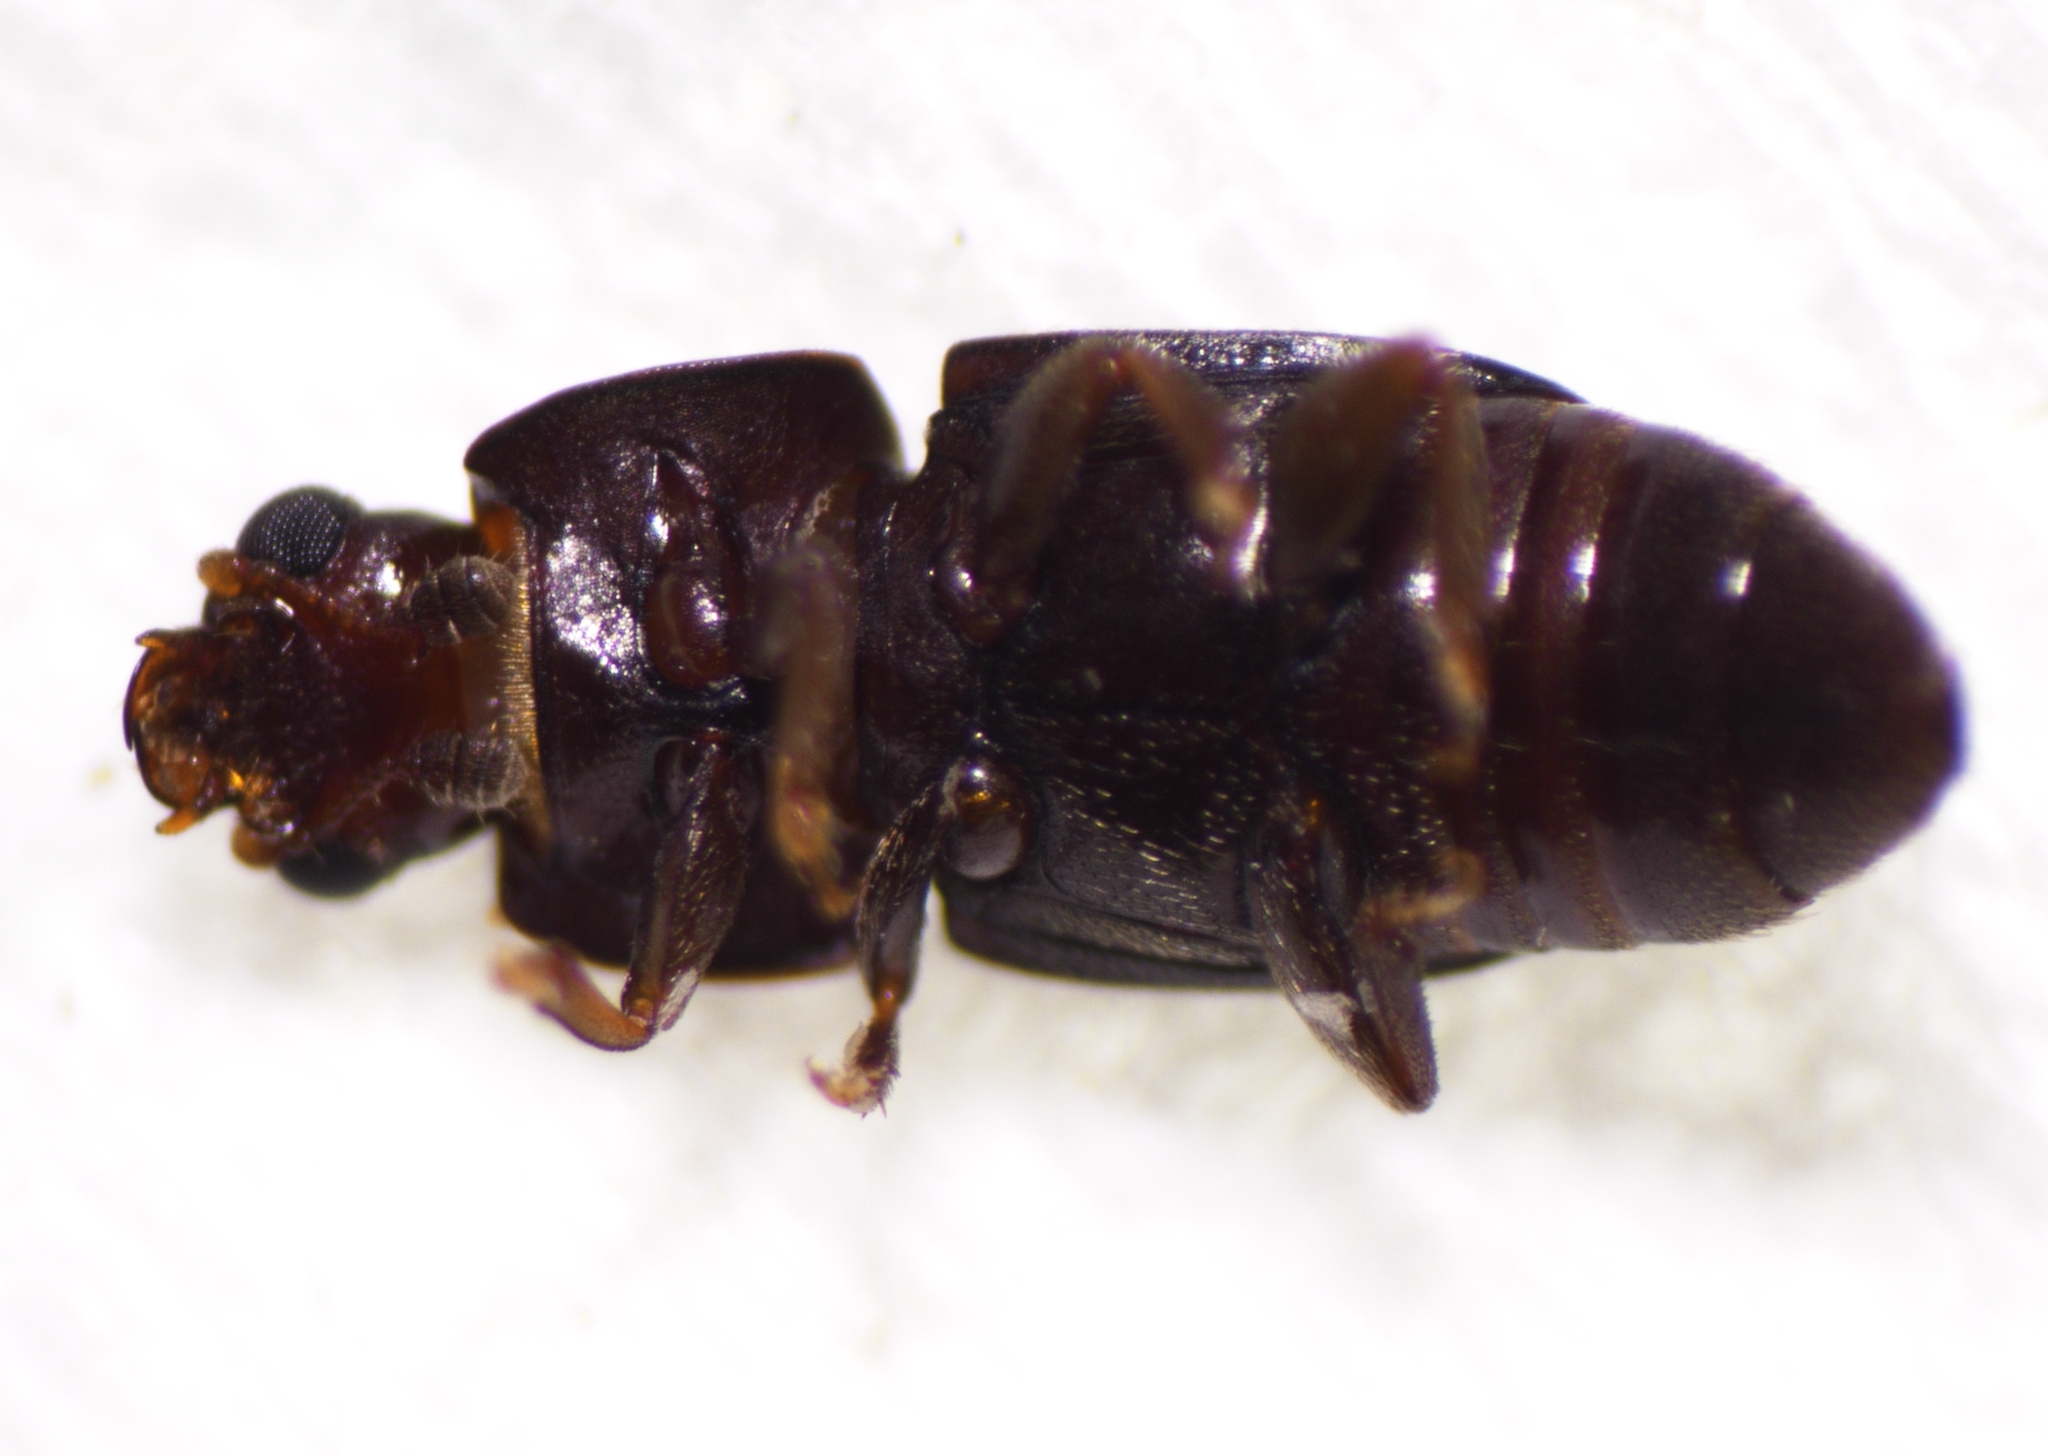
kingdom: Animalia
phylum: Arthropoda
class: Insecta
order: Coleoptera
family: Nitidulidae
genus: Carpophilus
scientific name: Carpophilus maculatus
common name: Sap beetle
